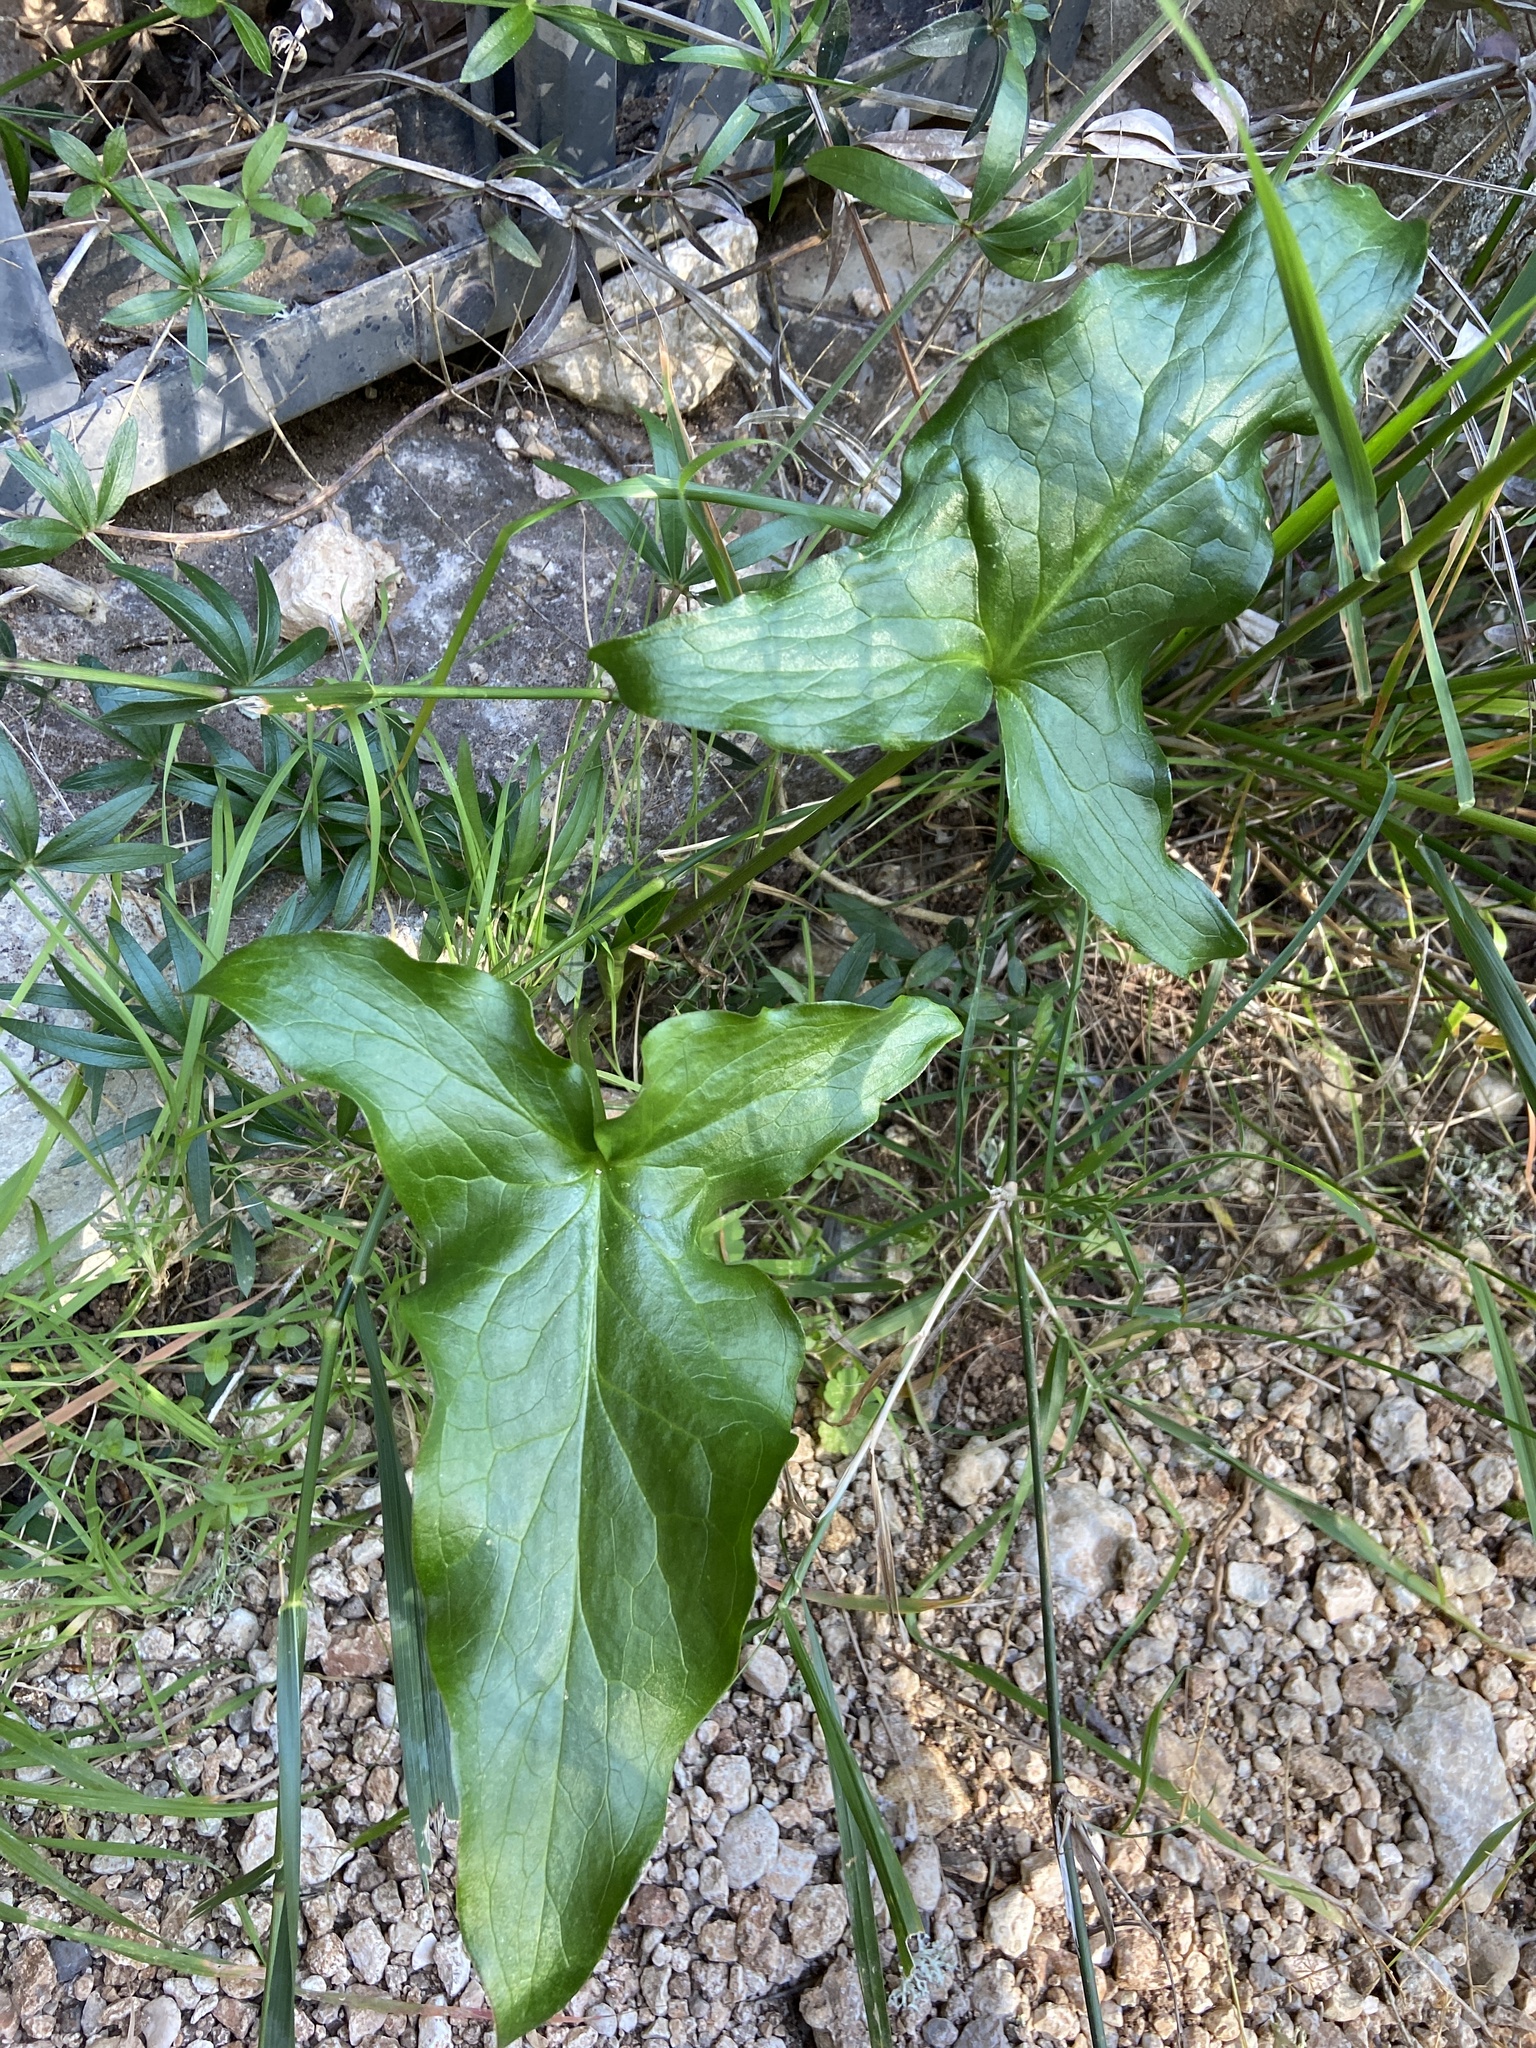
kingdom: Plantae
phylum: Tracheophyta
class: Liliopsida
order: Alismatales
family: Araceae
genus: Arum
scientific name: Arum italicum
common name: Italian lords-and-ladies
